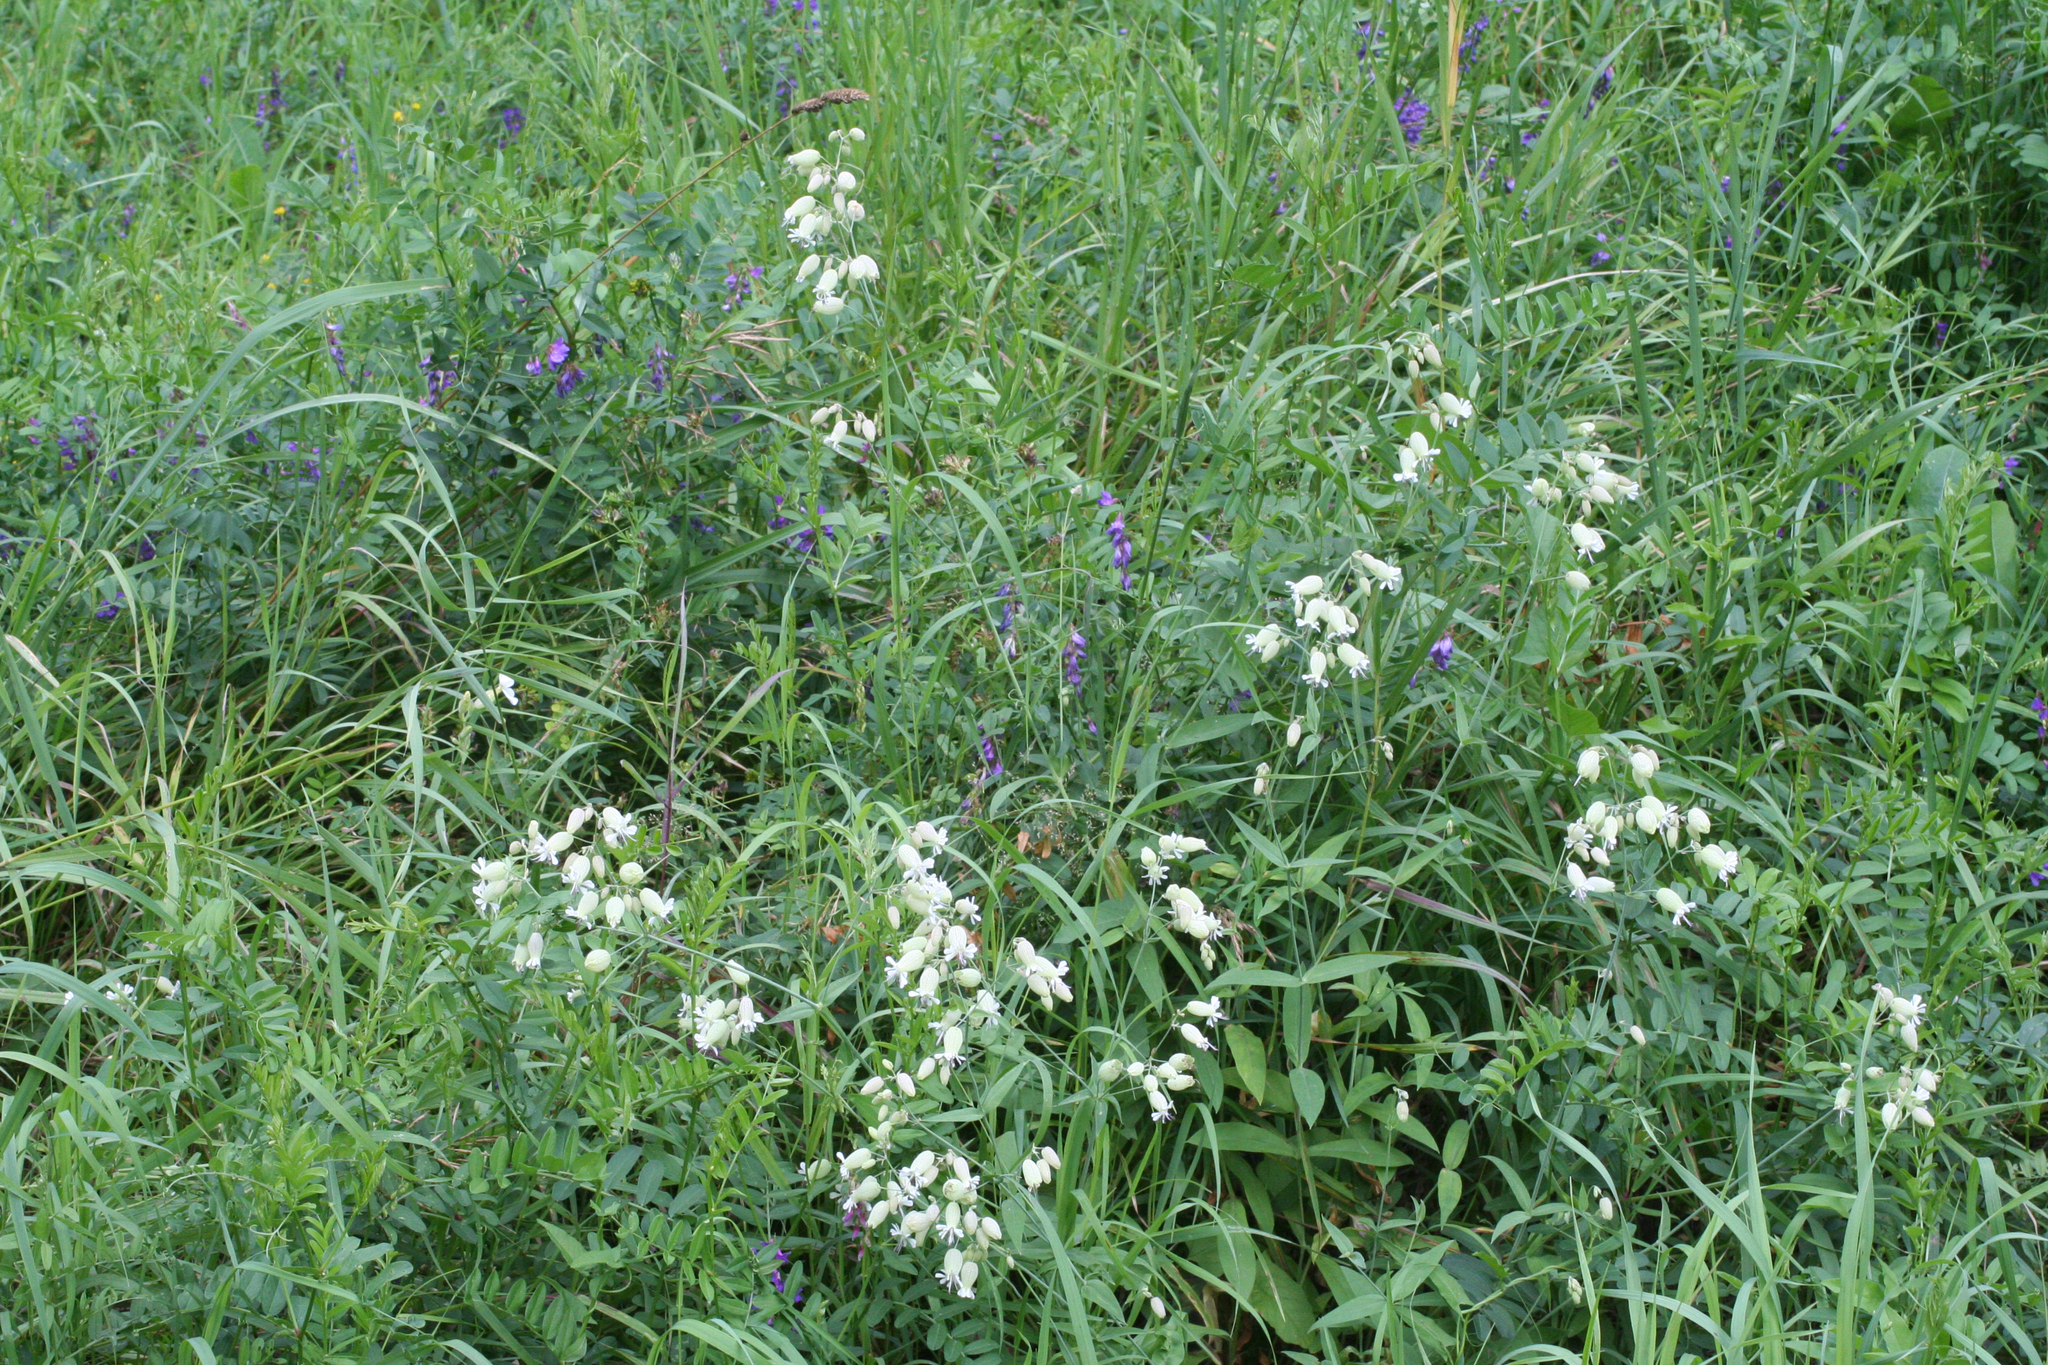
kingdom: Plantae
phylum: Tracheophyta
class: Magnoliopsida
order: Caryophyllales
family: Caryophyllaceae
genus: Silene
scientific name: Silene vulgaris
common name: Bladder campion
